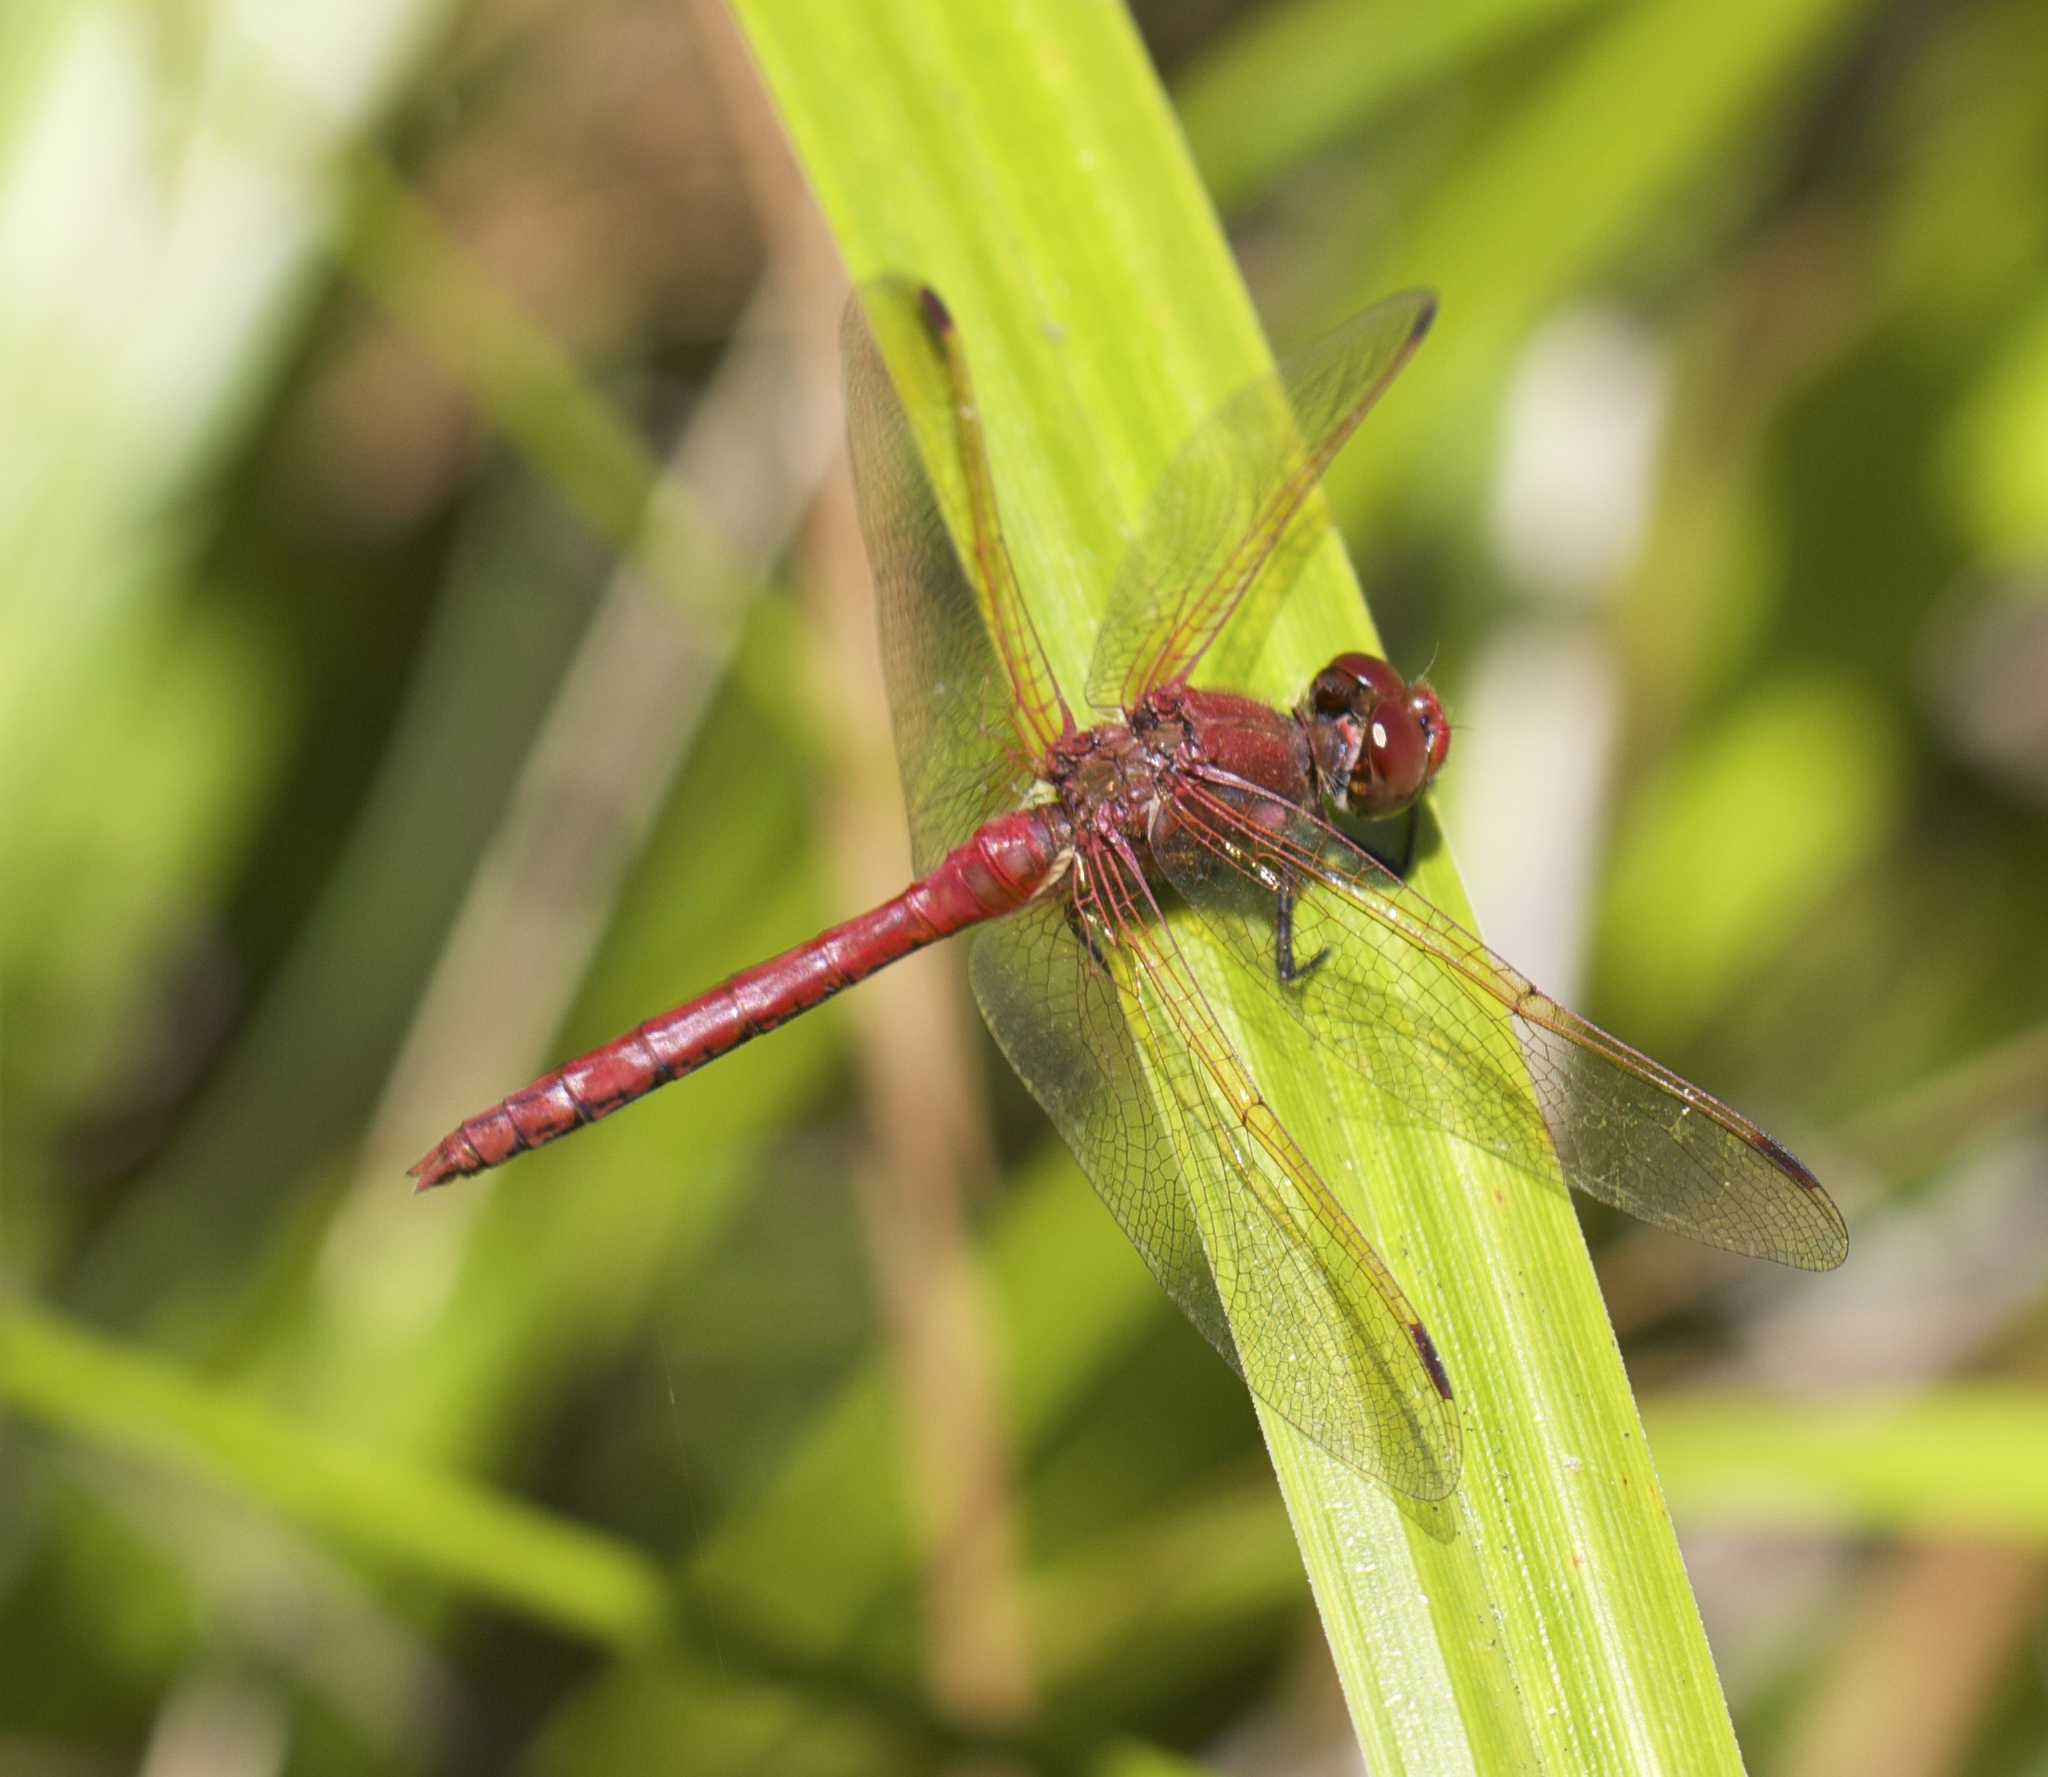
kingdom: Animalia
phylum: Arthropoda
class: Insecta
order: Odonata
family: Libellulidae
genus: Sympetrum
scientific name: Sympetrum madidum
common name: Red-veined meadowhawk
